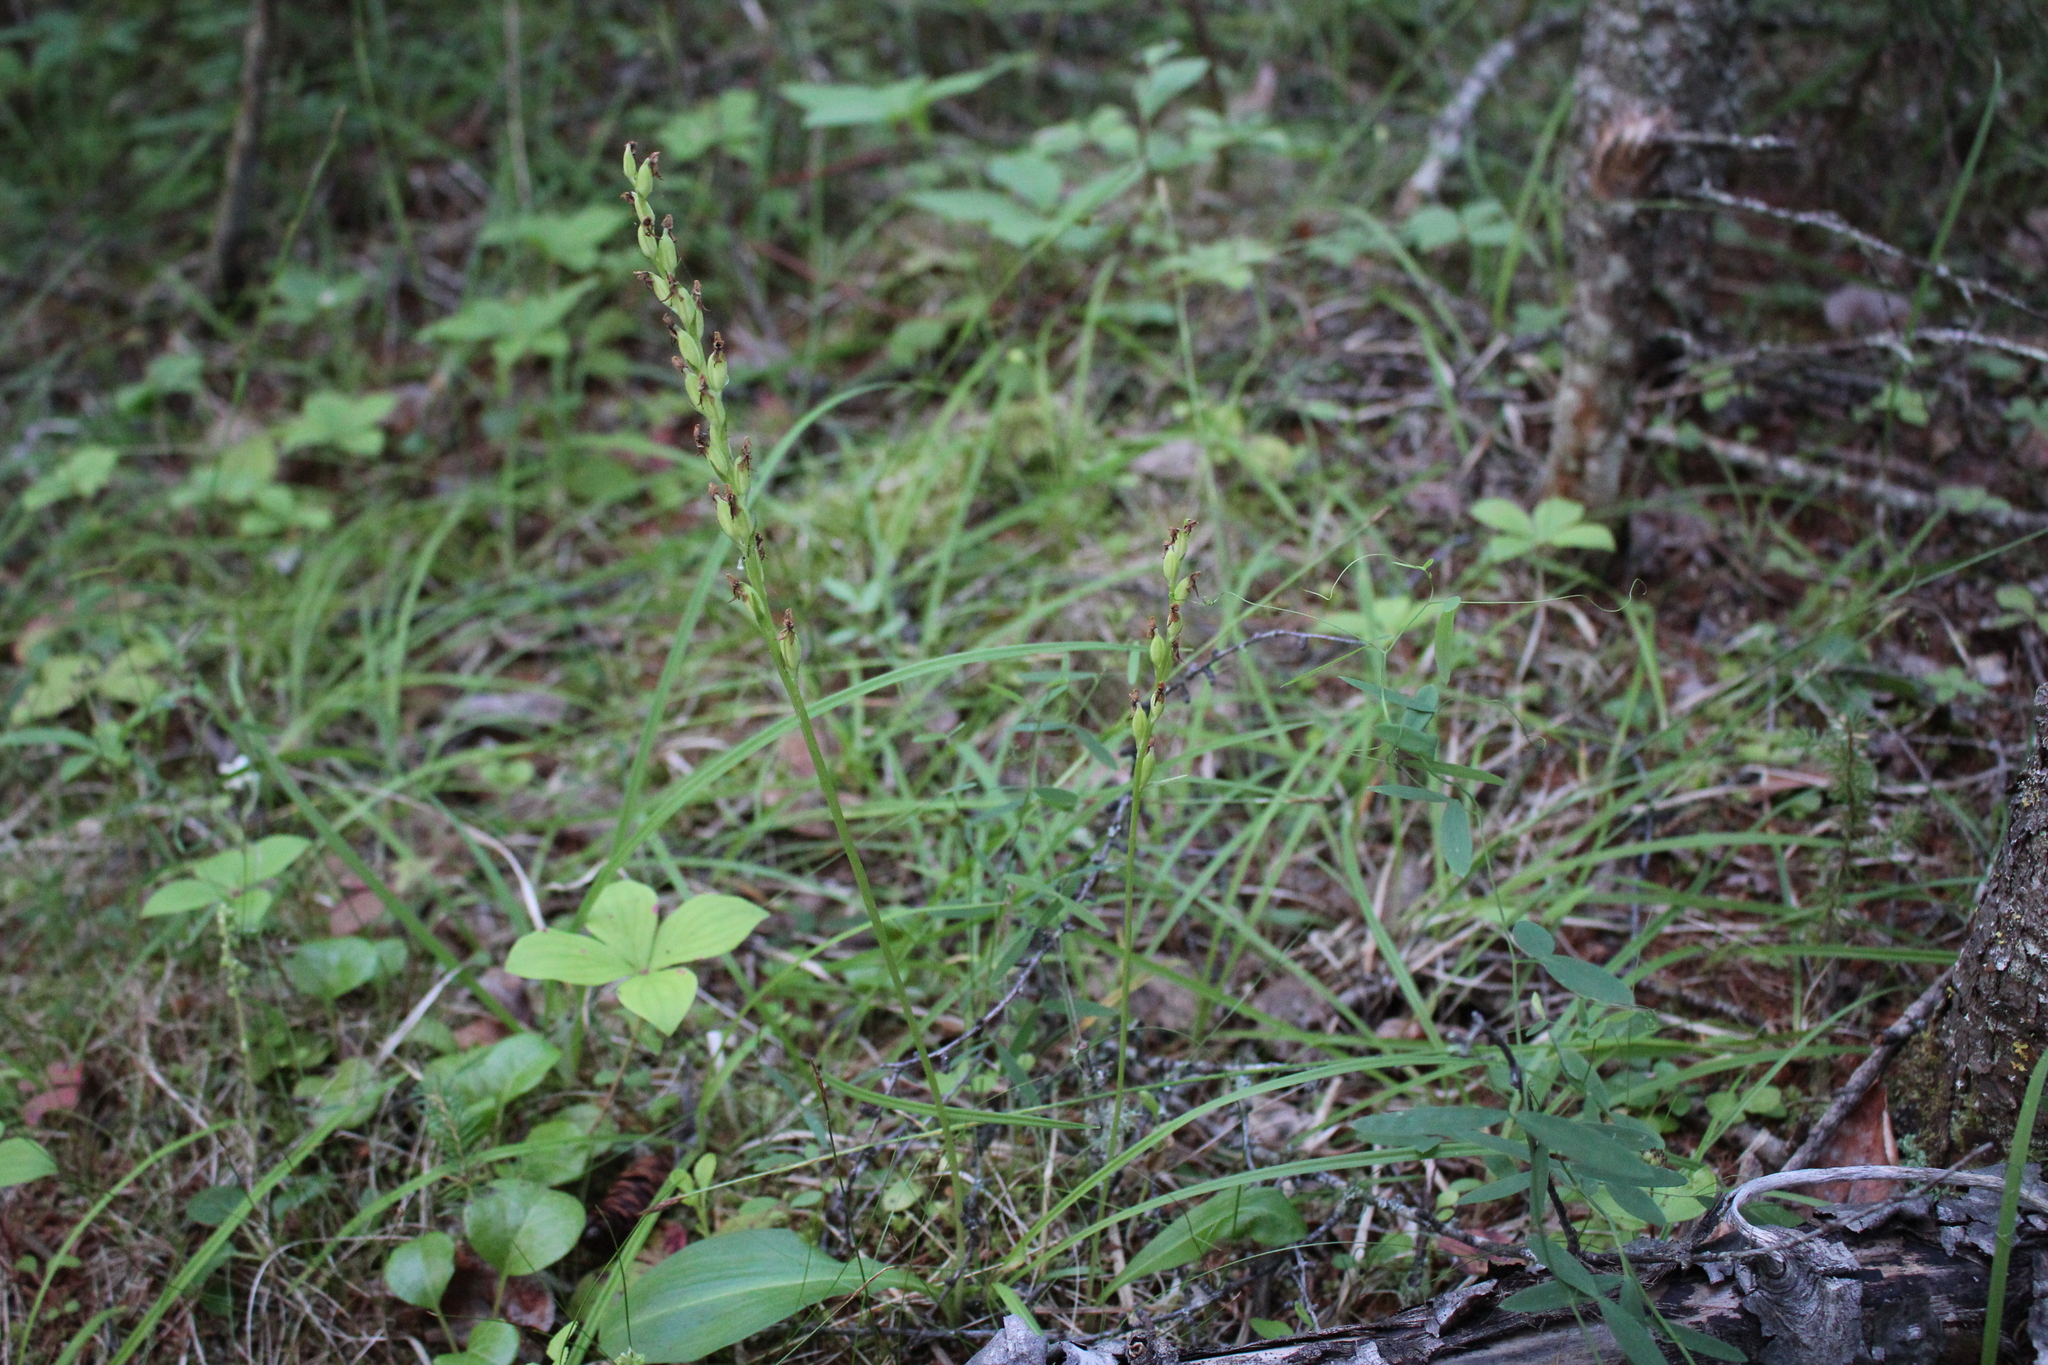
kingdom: Plantae
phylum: Tracheophyta
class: Liliopsida
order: Asparagales
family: Orchidaceae
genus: Platanthera
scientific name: Platanthera obtusata
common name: Blunt bog orchid
